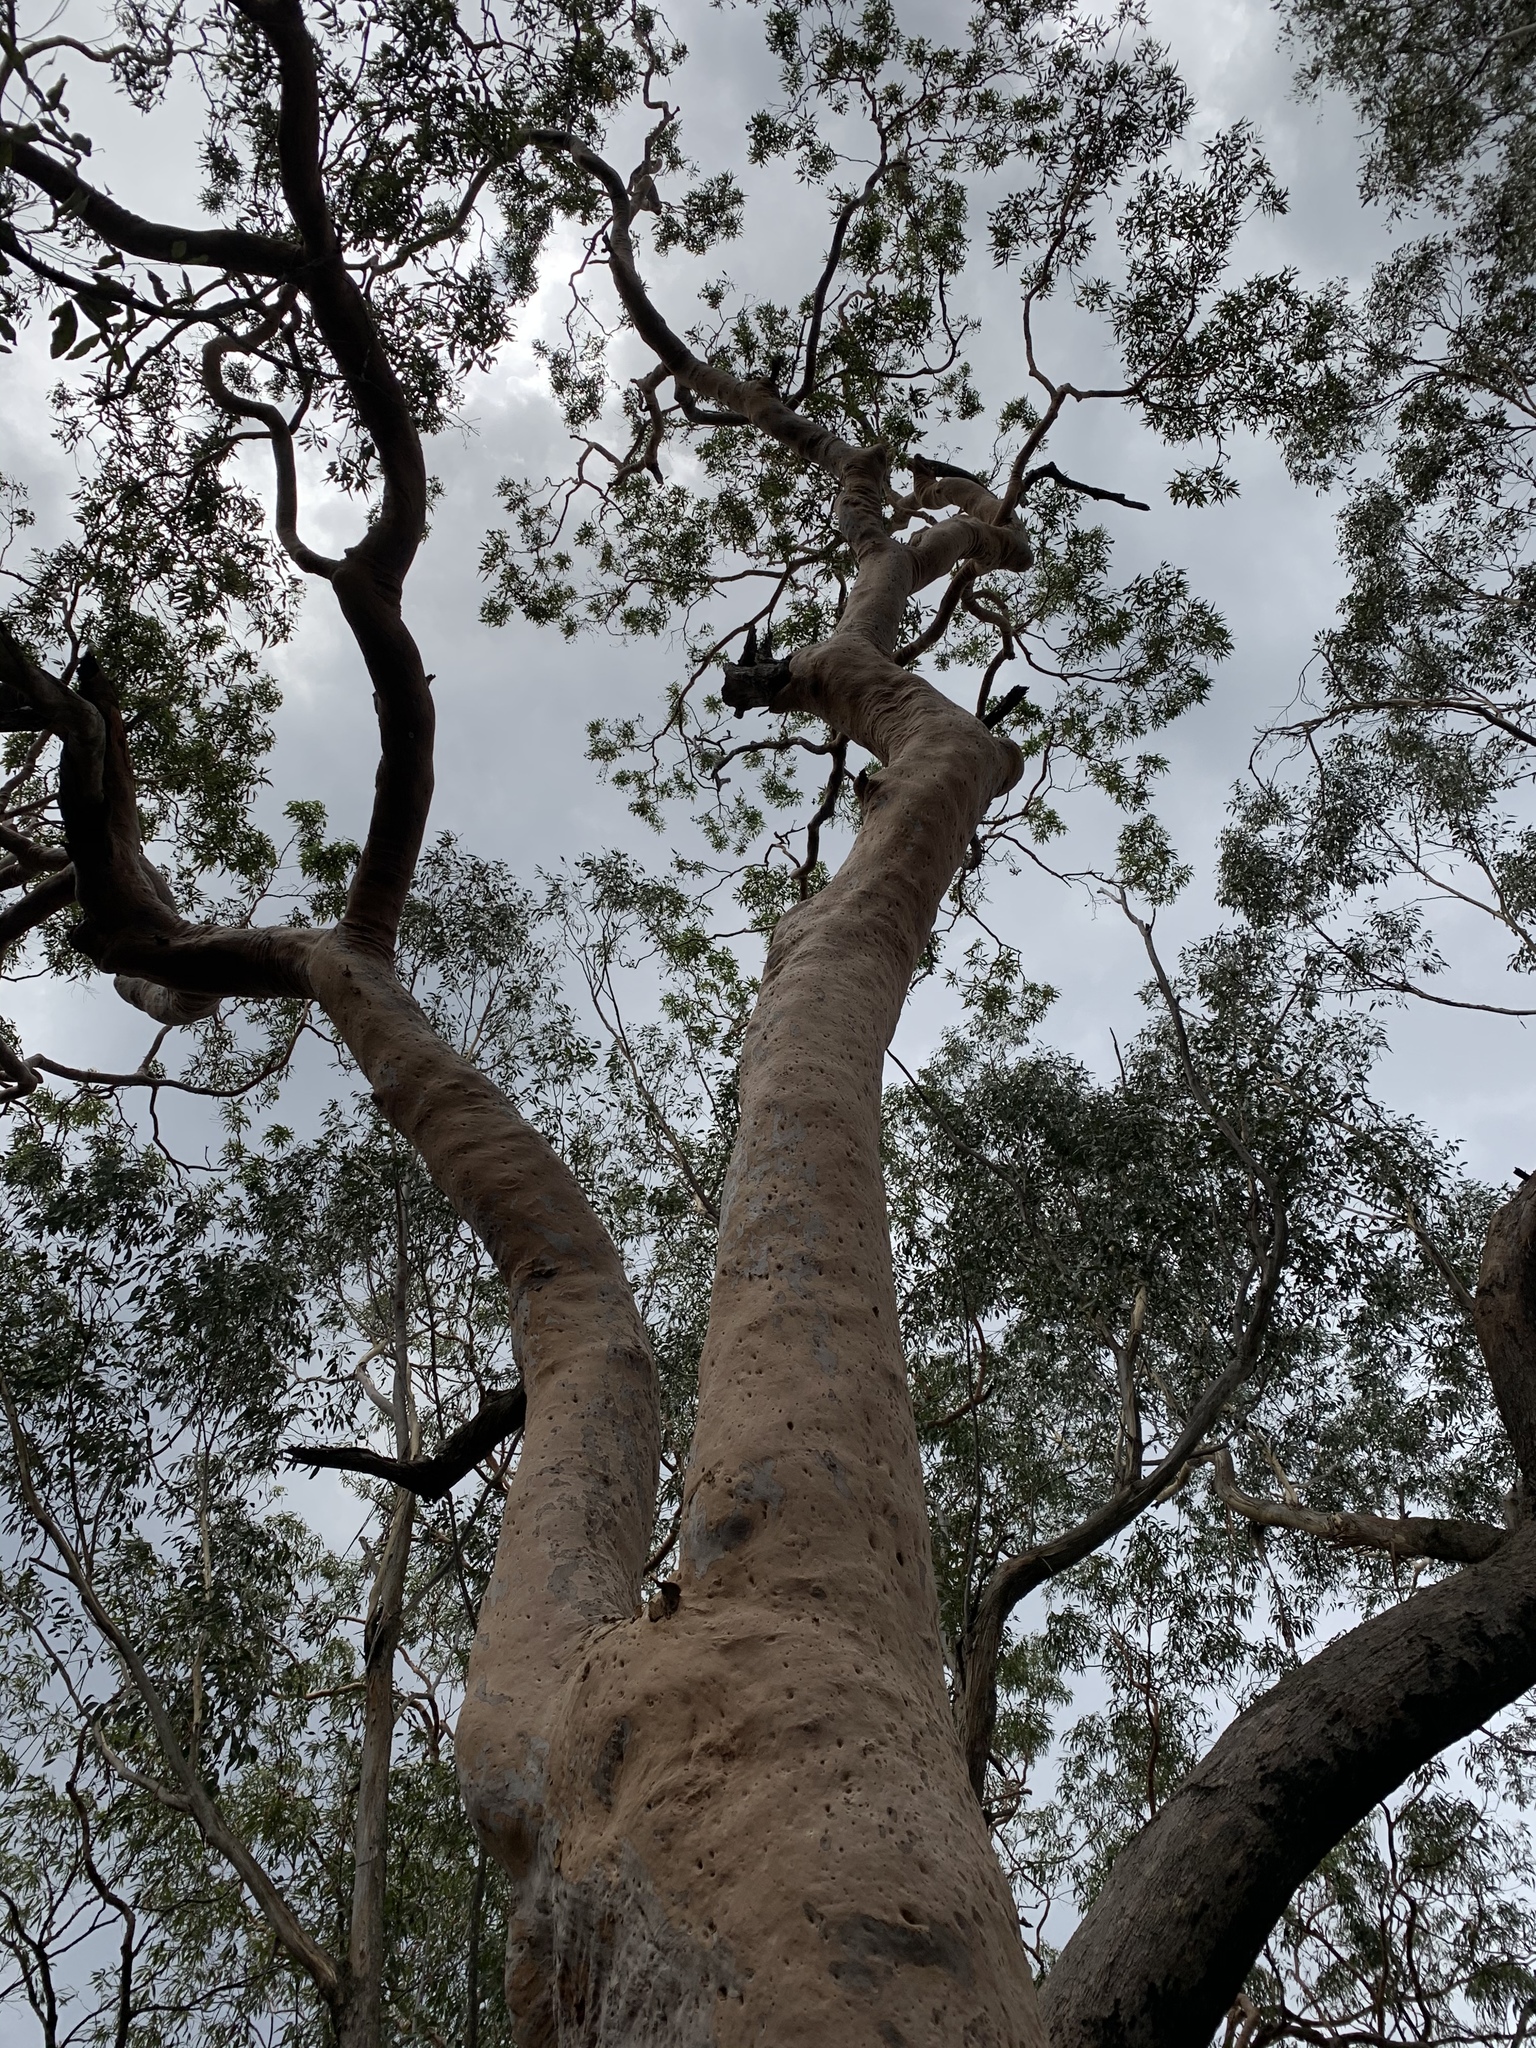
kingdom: Plantae
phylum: Tracheophyta
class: Magnoliopsida
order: Myrtales
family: Myrtaceae
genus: Angophora
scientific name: Angophora costata
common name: Gum myrtle
